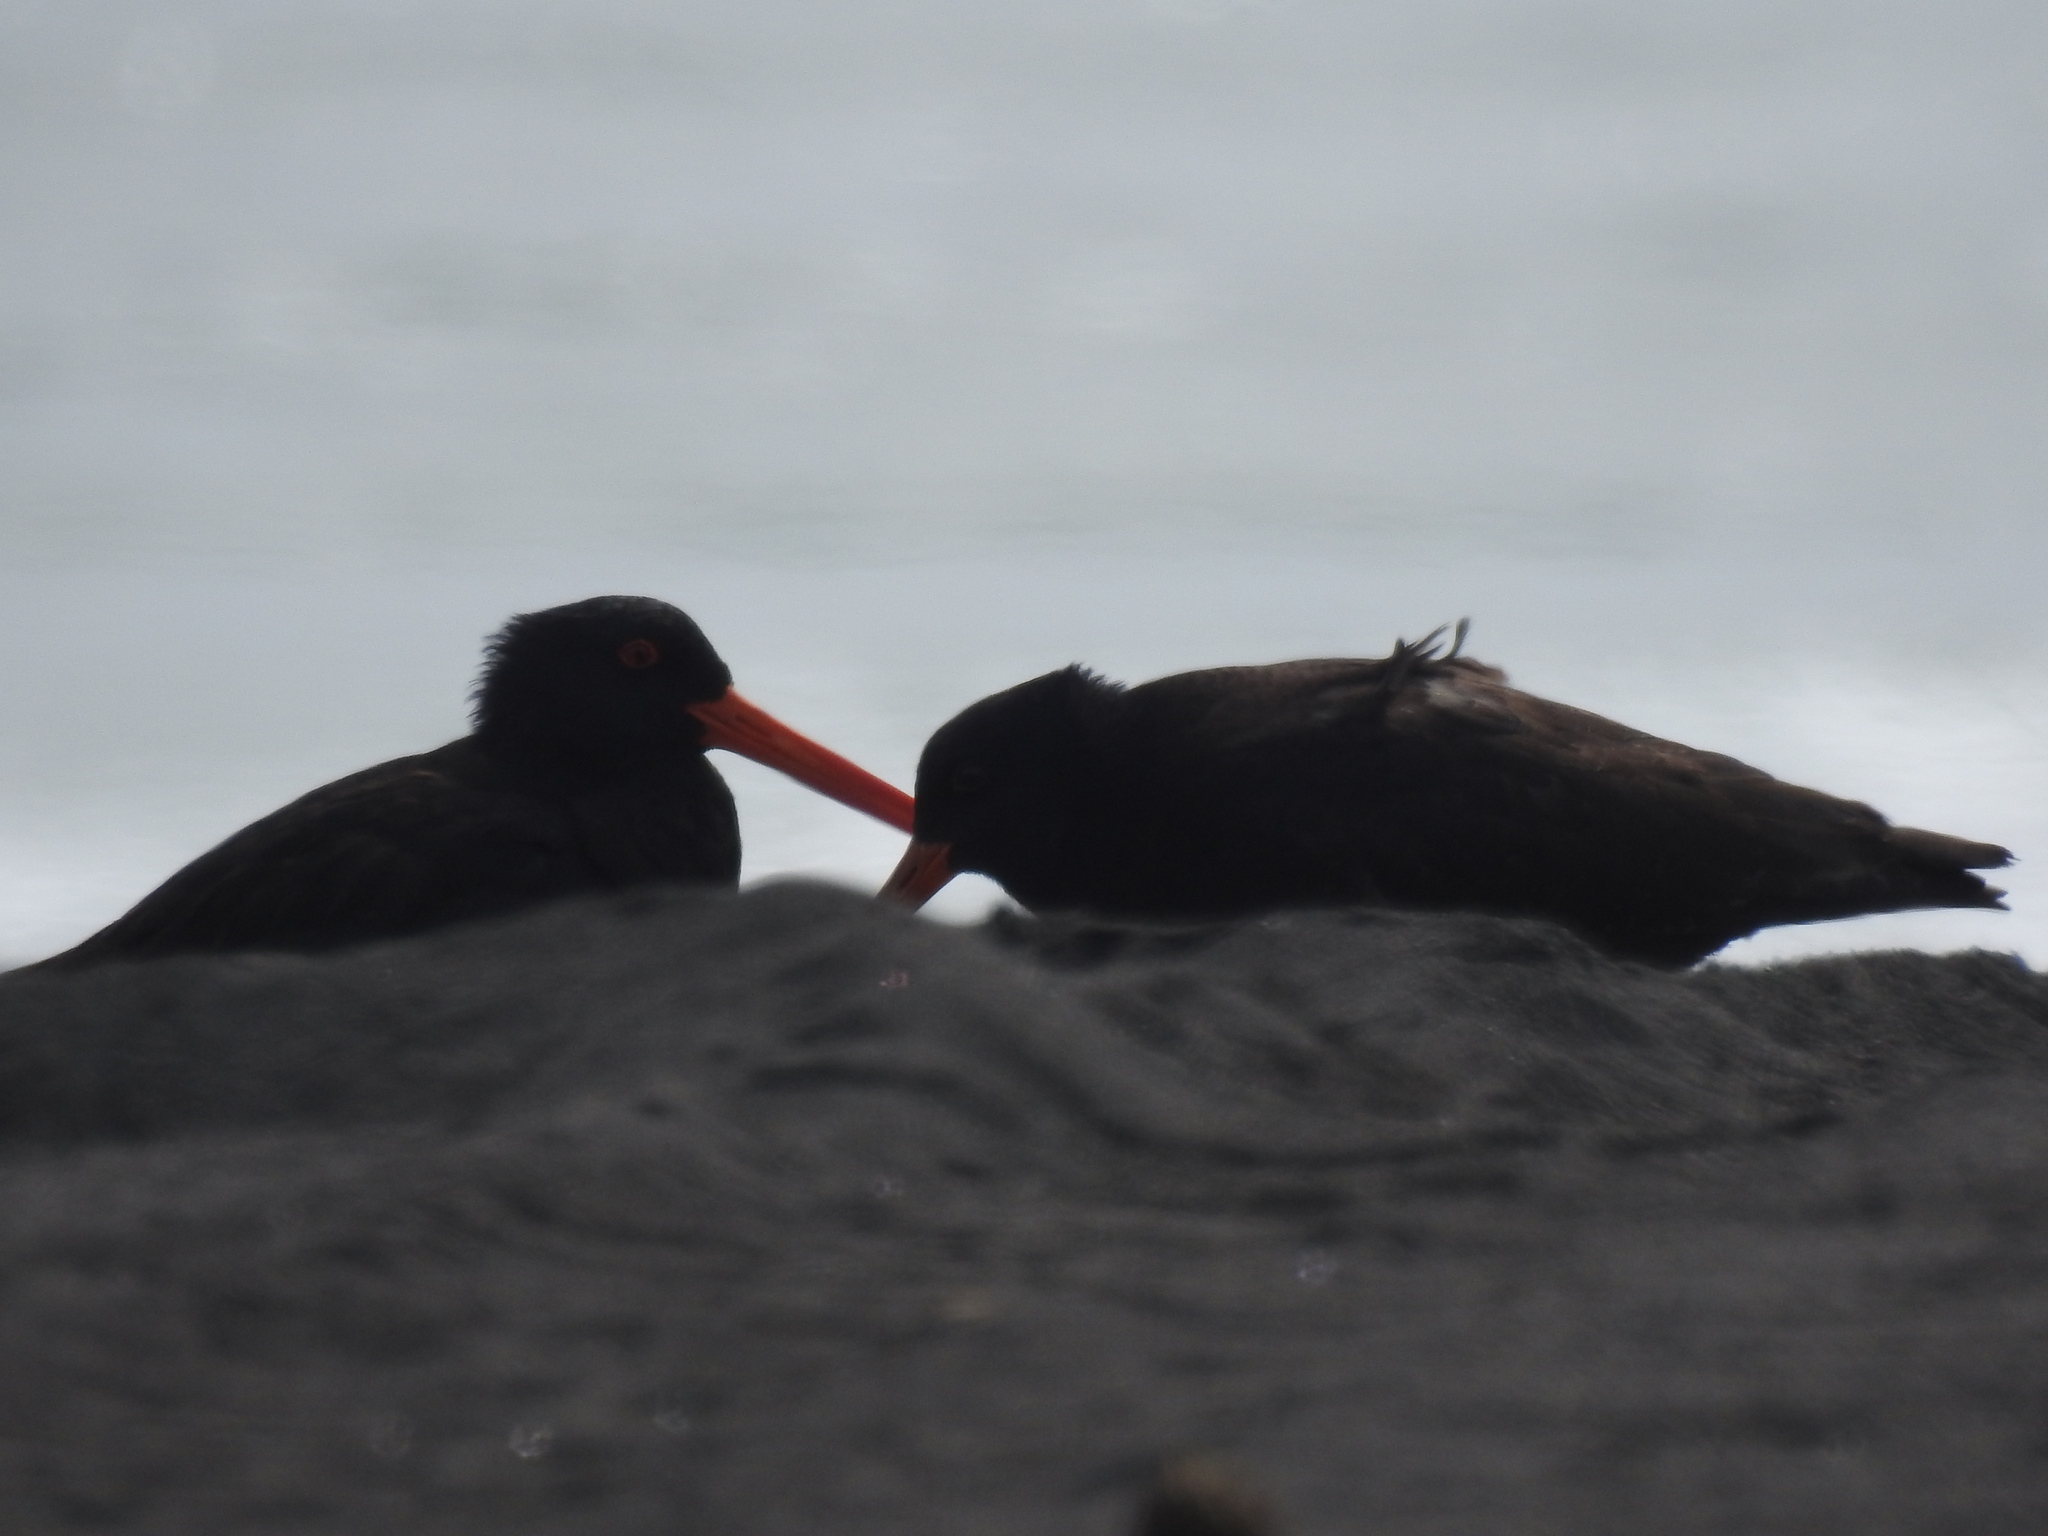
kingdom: Animalia
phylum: Chordata
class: Aves
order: Charadriiformes
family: Haematopodidae
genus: Haematopus
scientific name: Haematopus unicolor
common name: Variable oystercatcher
